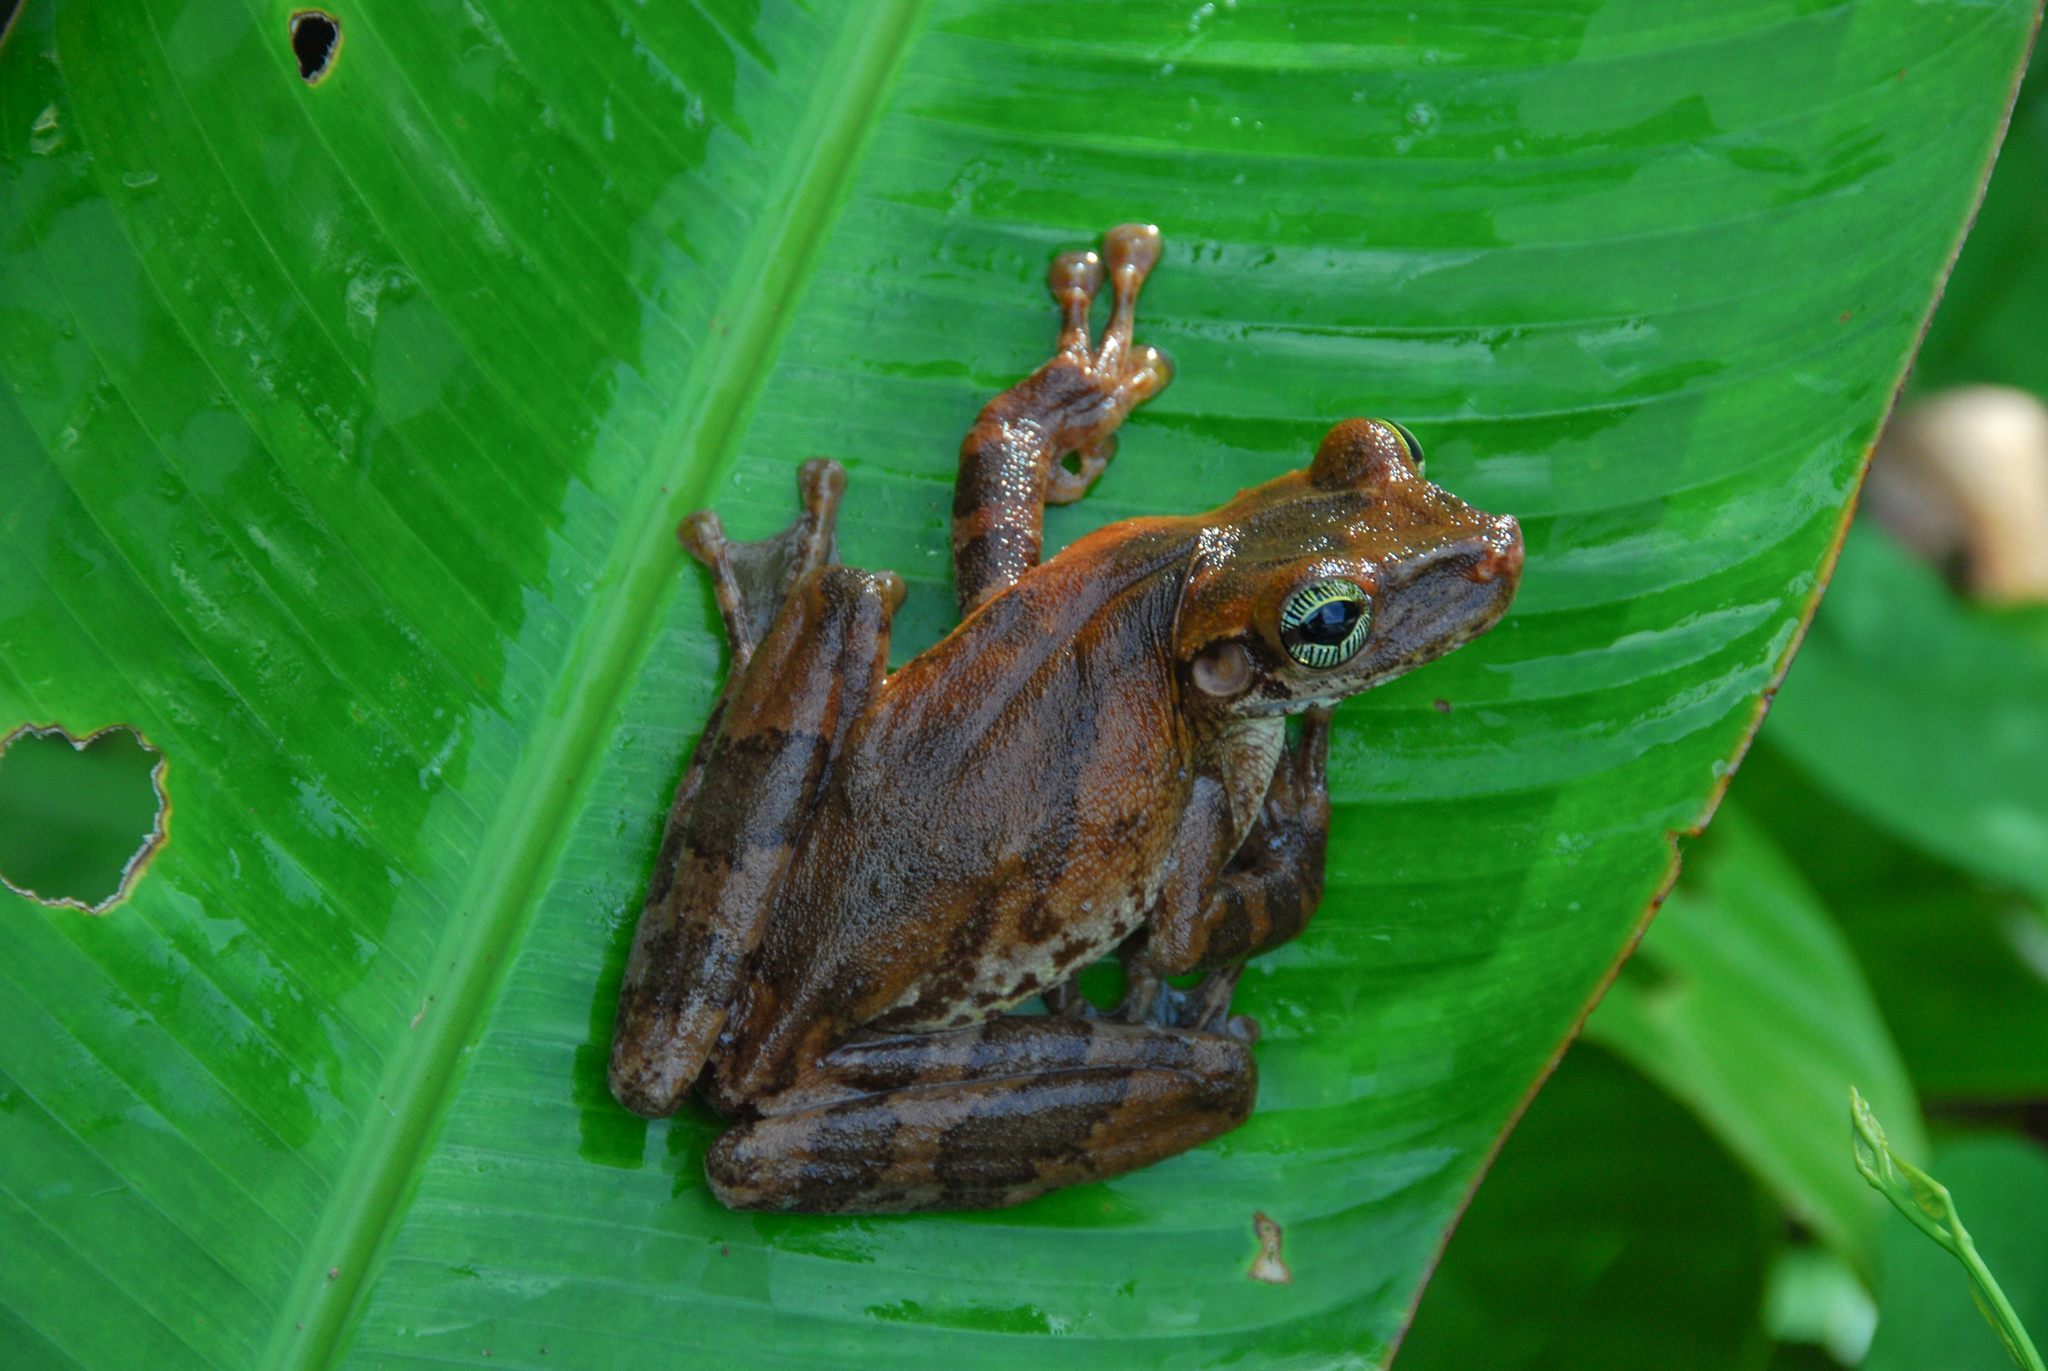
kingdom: Animalia
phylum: Chordata
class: Amphibia
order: Anura
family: Hylidae
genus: Osteocephalus
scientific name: Osteocephalus taurinus
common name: Manaus slender-legged treefrog
